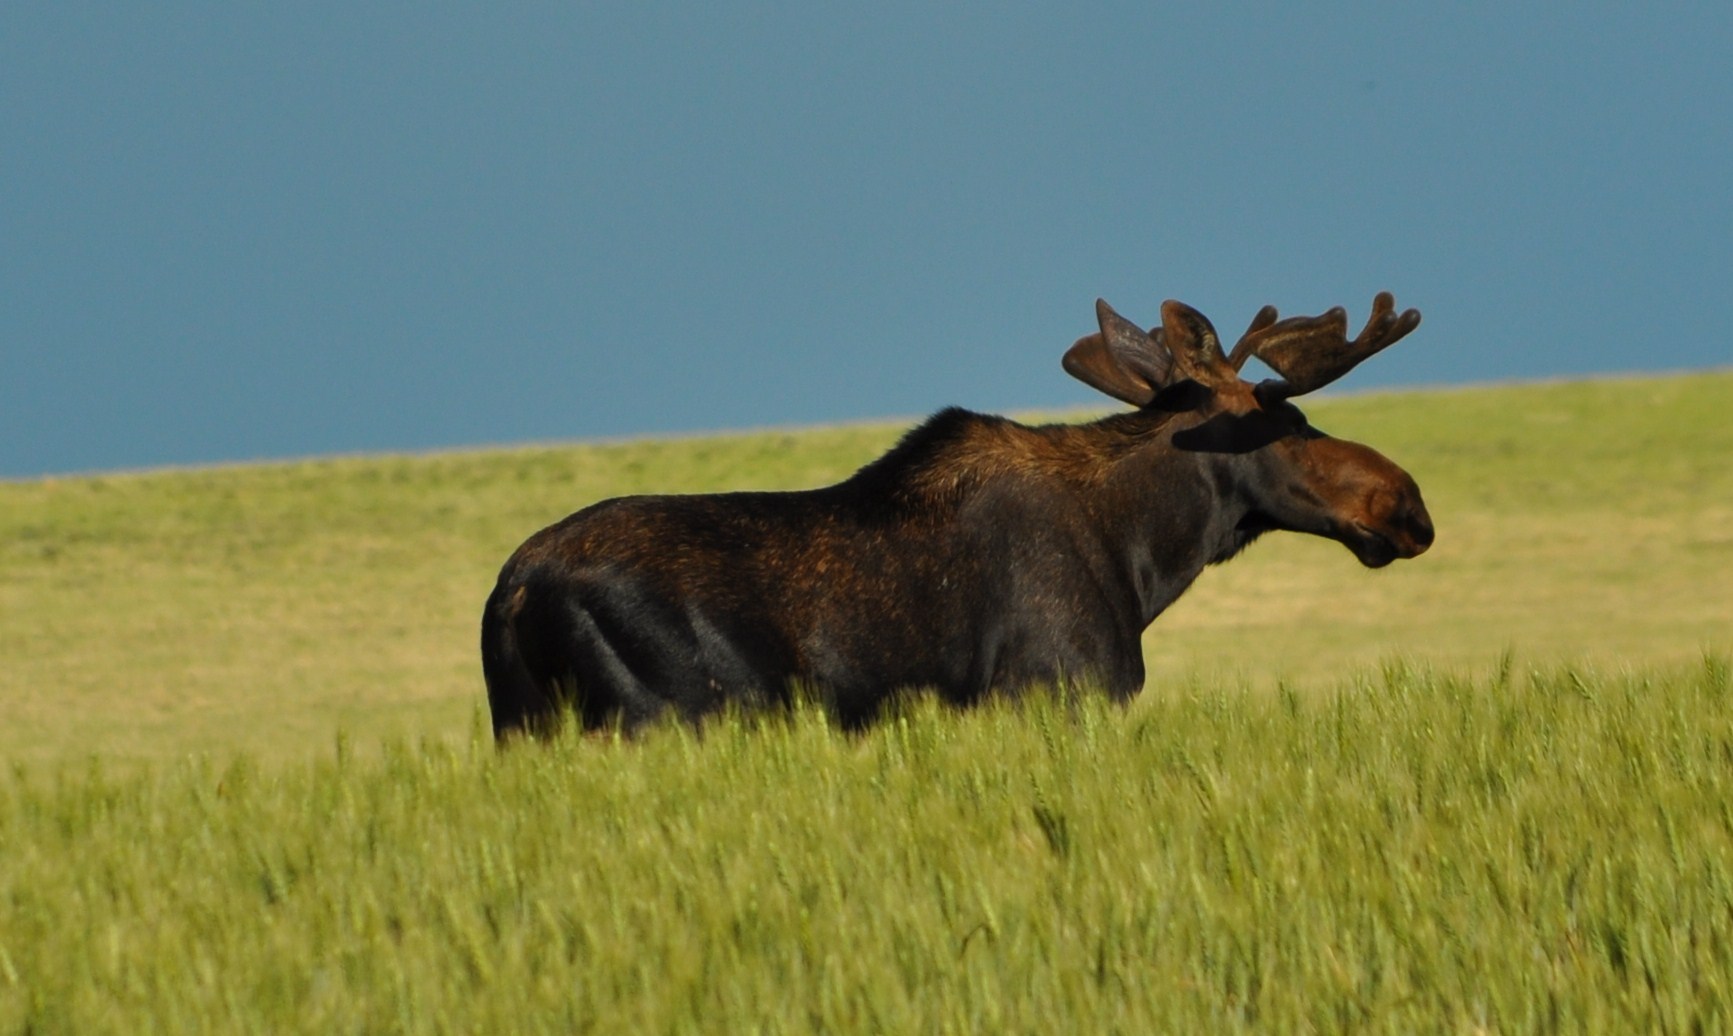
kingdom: Animalia
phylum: Chordata
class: Mammalia
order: Artiodactyla
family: Cervidae
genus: Alces
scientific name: Alces alces
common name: Moose
